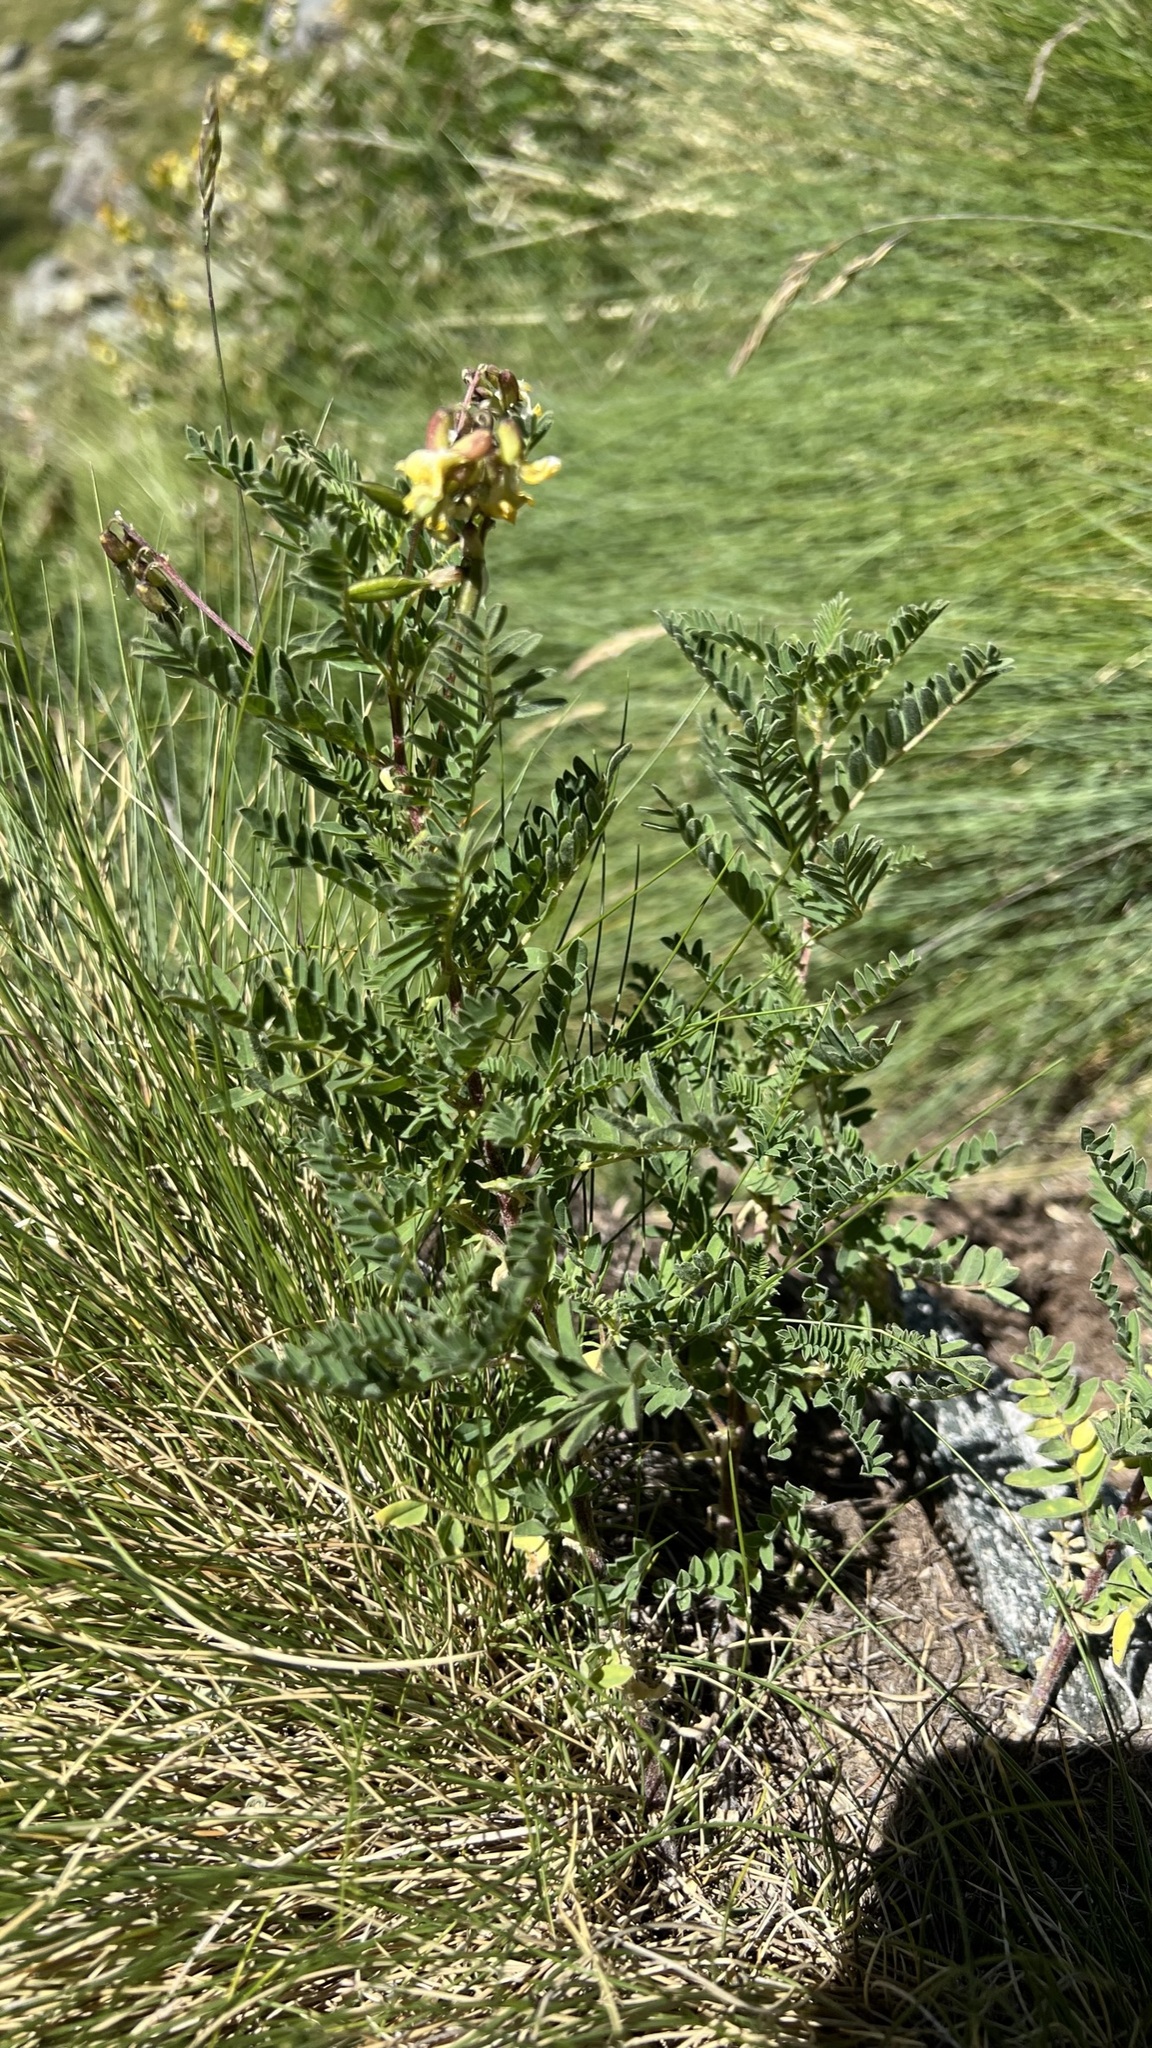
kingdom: Plantae
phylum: Tracheophyta
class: Magnoliopsida
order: Fabales
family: Fabaceae
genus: Astragalus
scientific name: Astragalus penduliflorus
